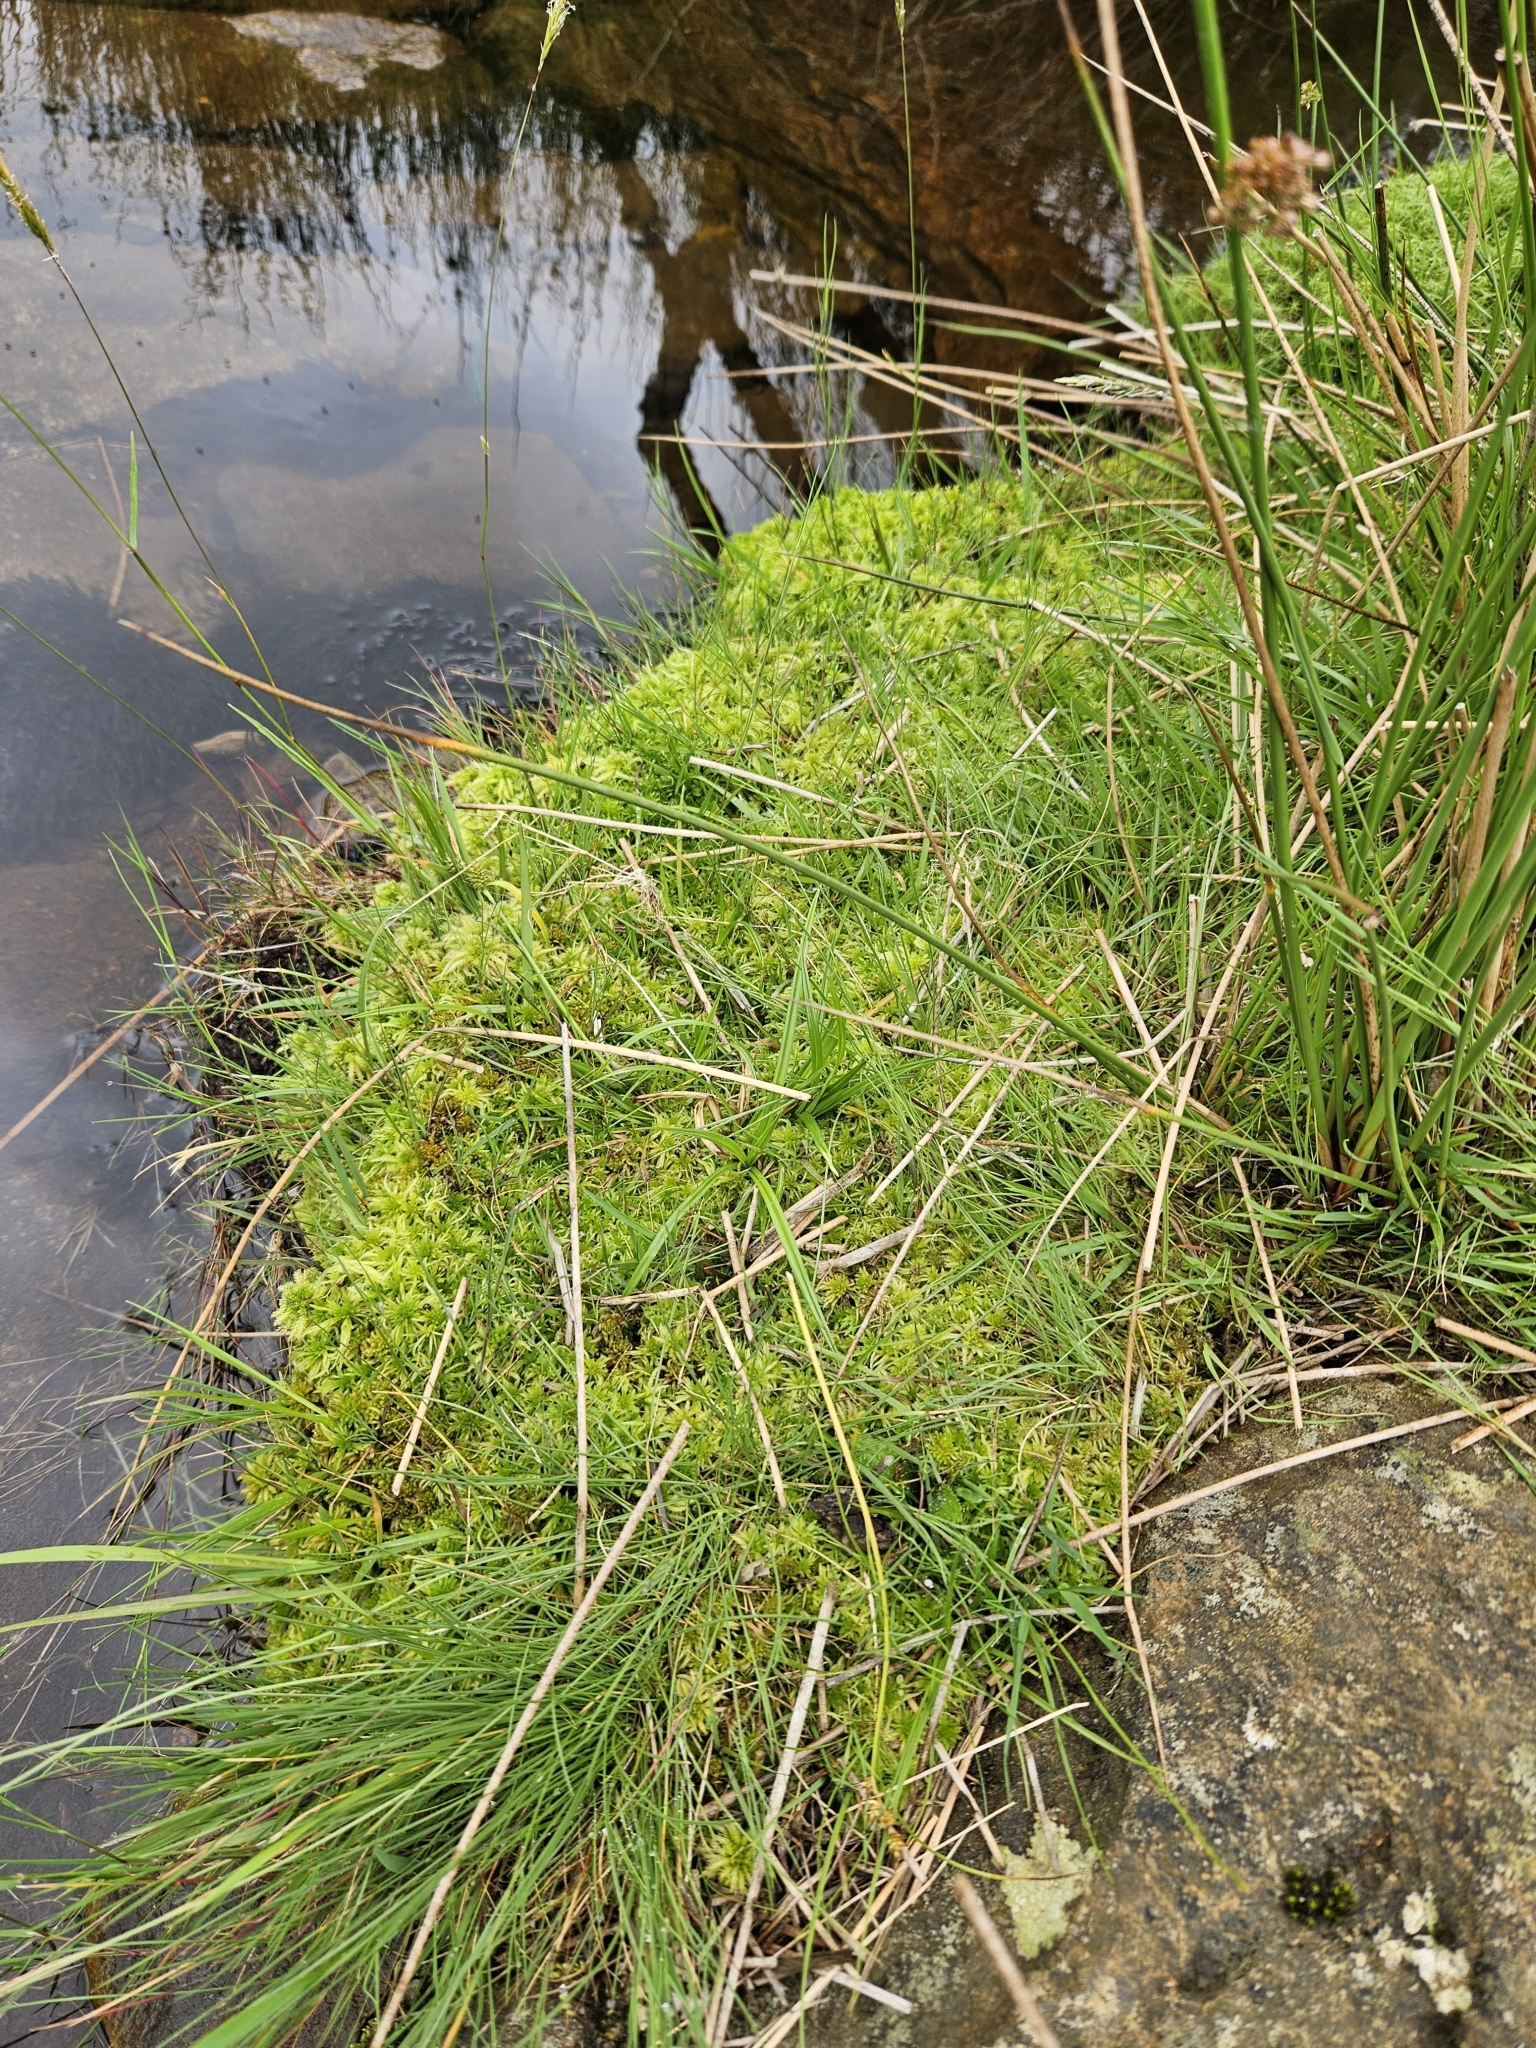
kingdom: Plantae
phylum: Bryophyta
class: Sphagnopsida
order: Sphagnales
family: Sphagnaceae
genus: Sphagnum
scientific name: Sphagnum squarrosum
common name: Shaggy peat moss
